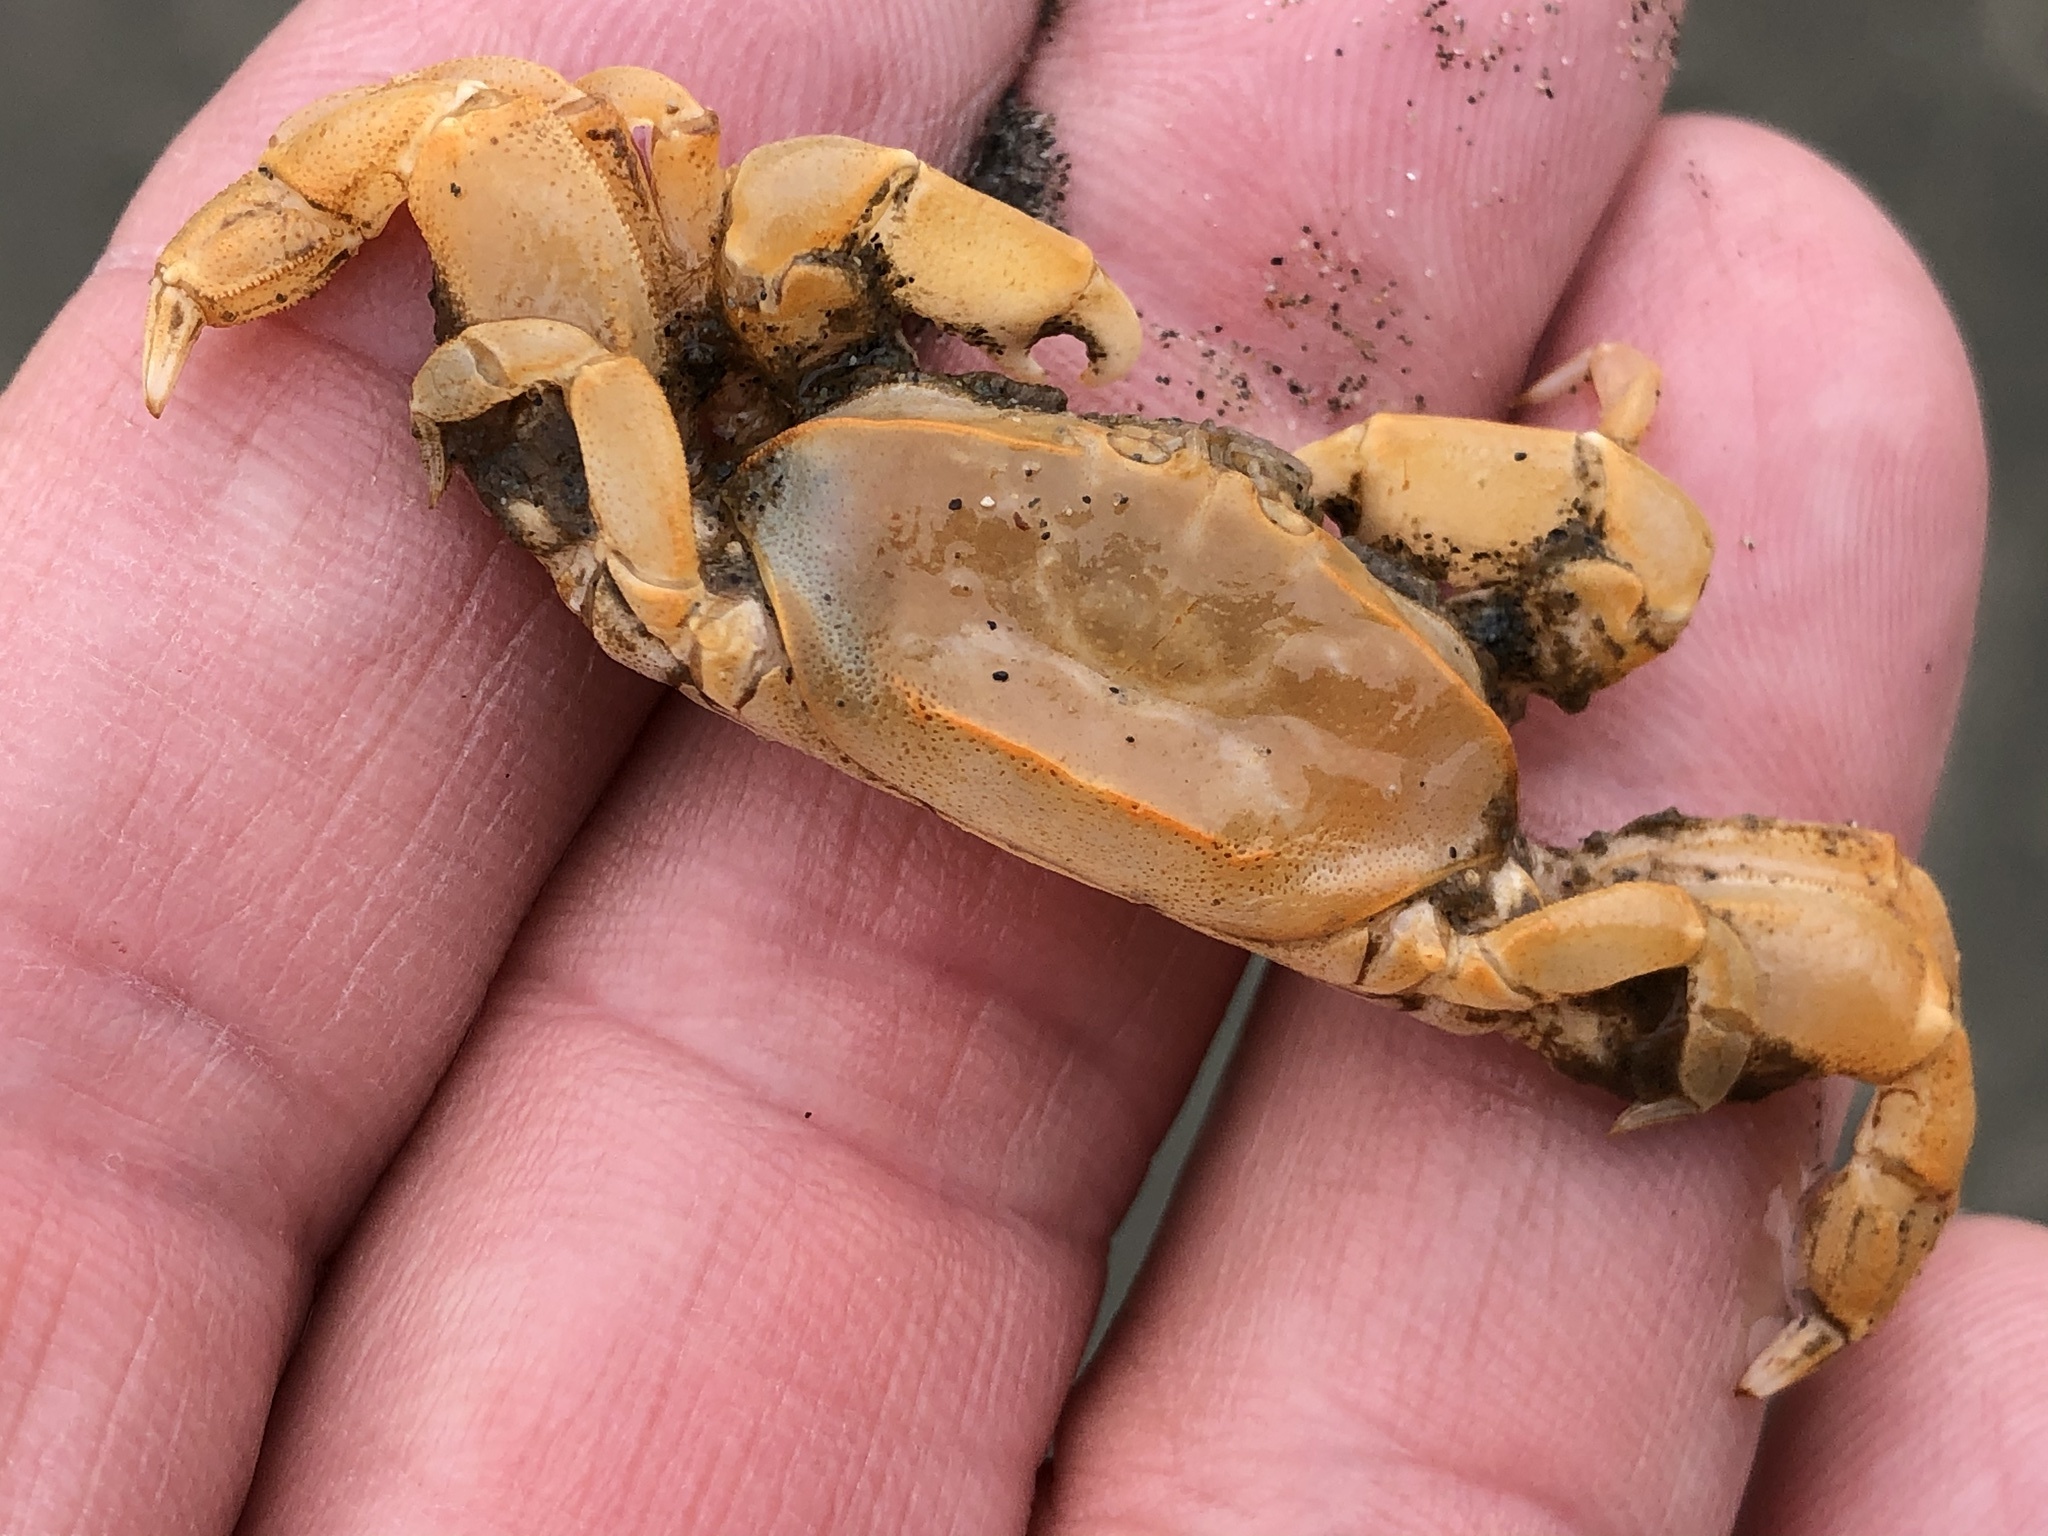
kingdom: Animalia
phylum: Arthropoda
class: Malacostraca
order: Decapoda
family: Pinnotheridae
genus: Scleroplax
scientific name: Scleroplax franciscana
